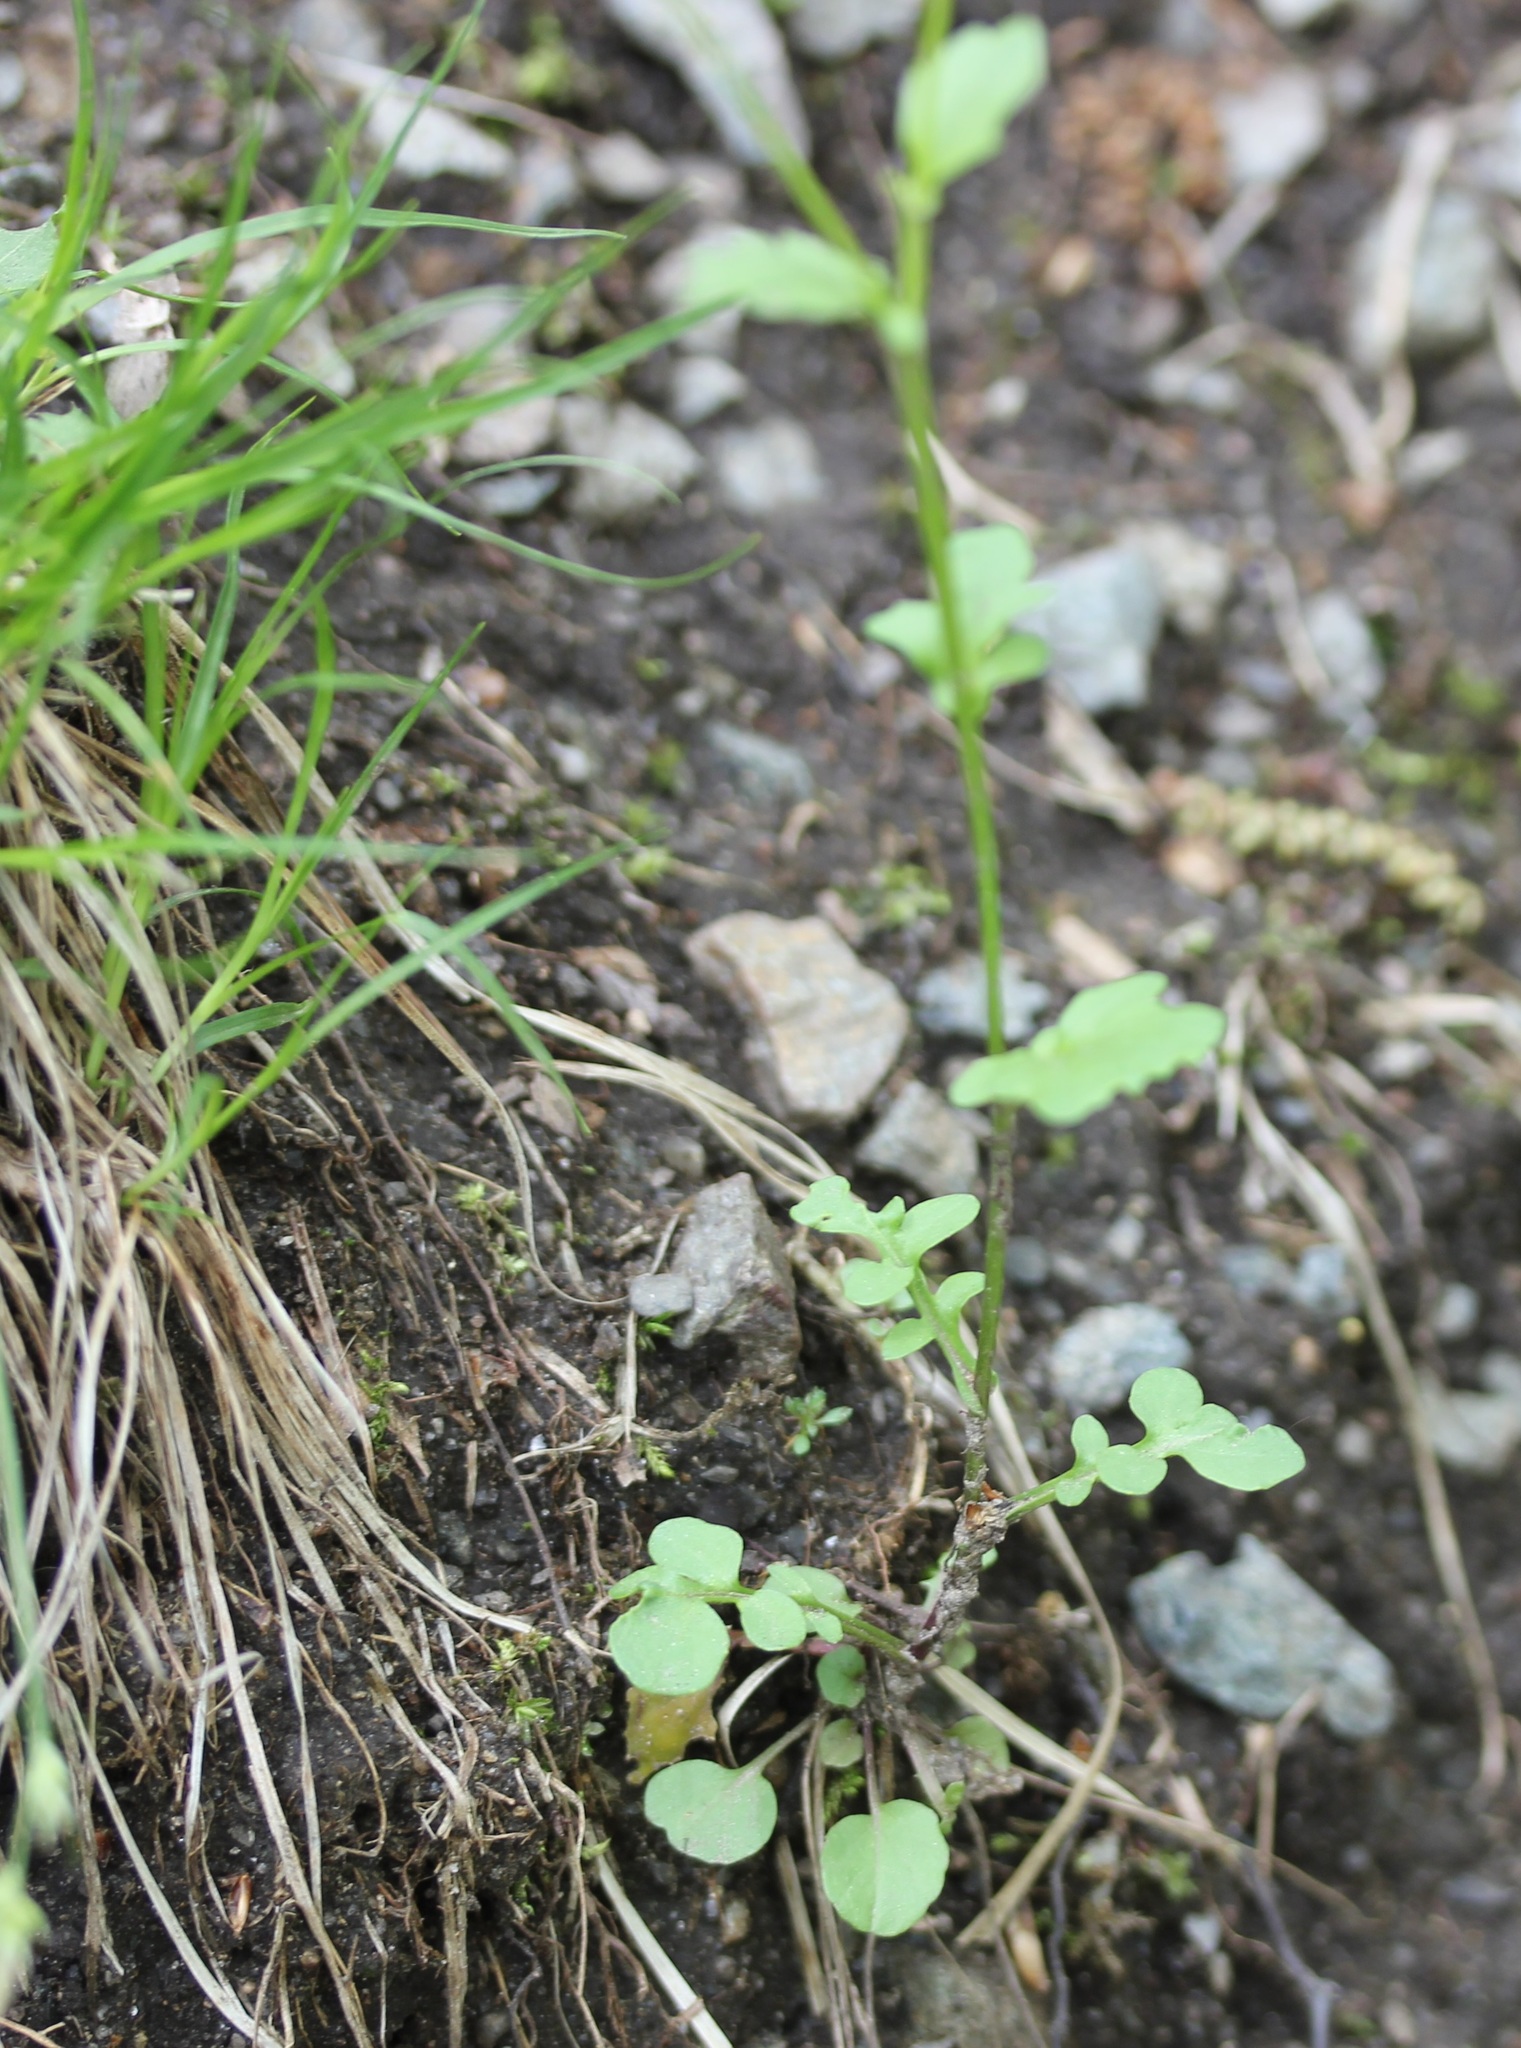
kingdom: Plantae
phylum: Tracheophyta
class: Magnoliopsida
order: Brassicales
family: Brassicaceae
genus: Barbarea
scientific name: Barbarea vulgaris
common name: Cressy-greens
